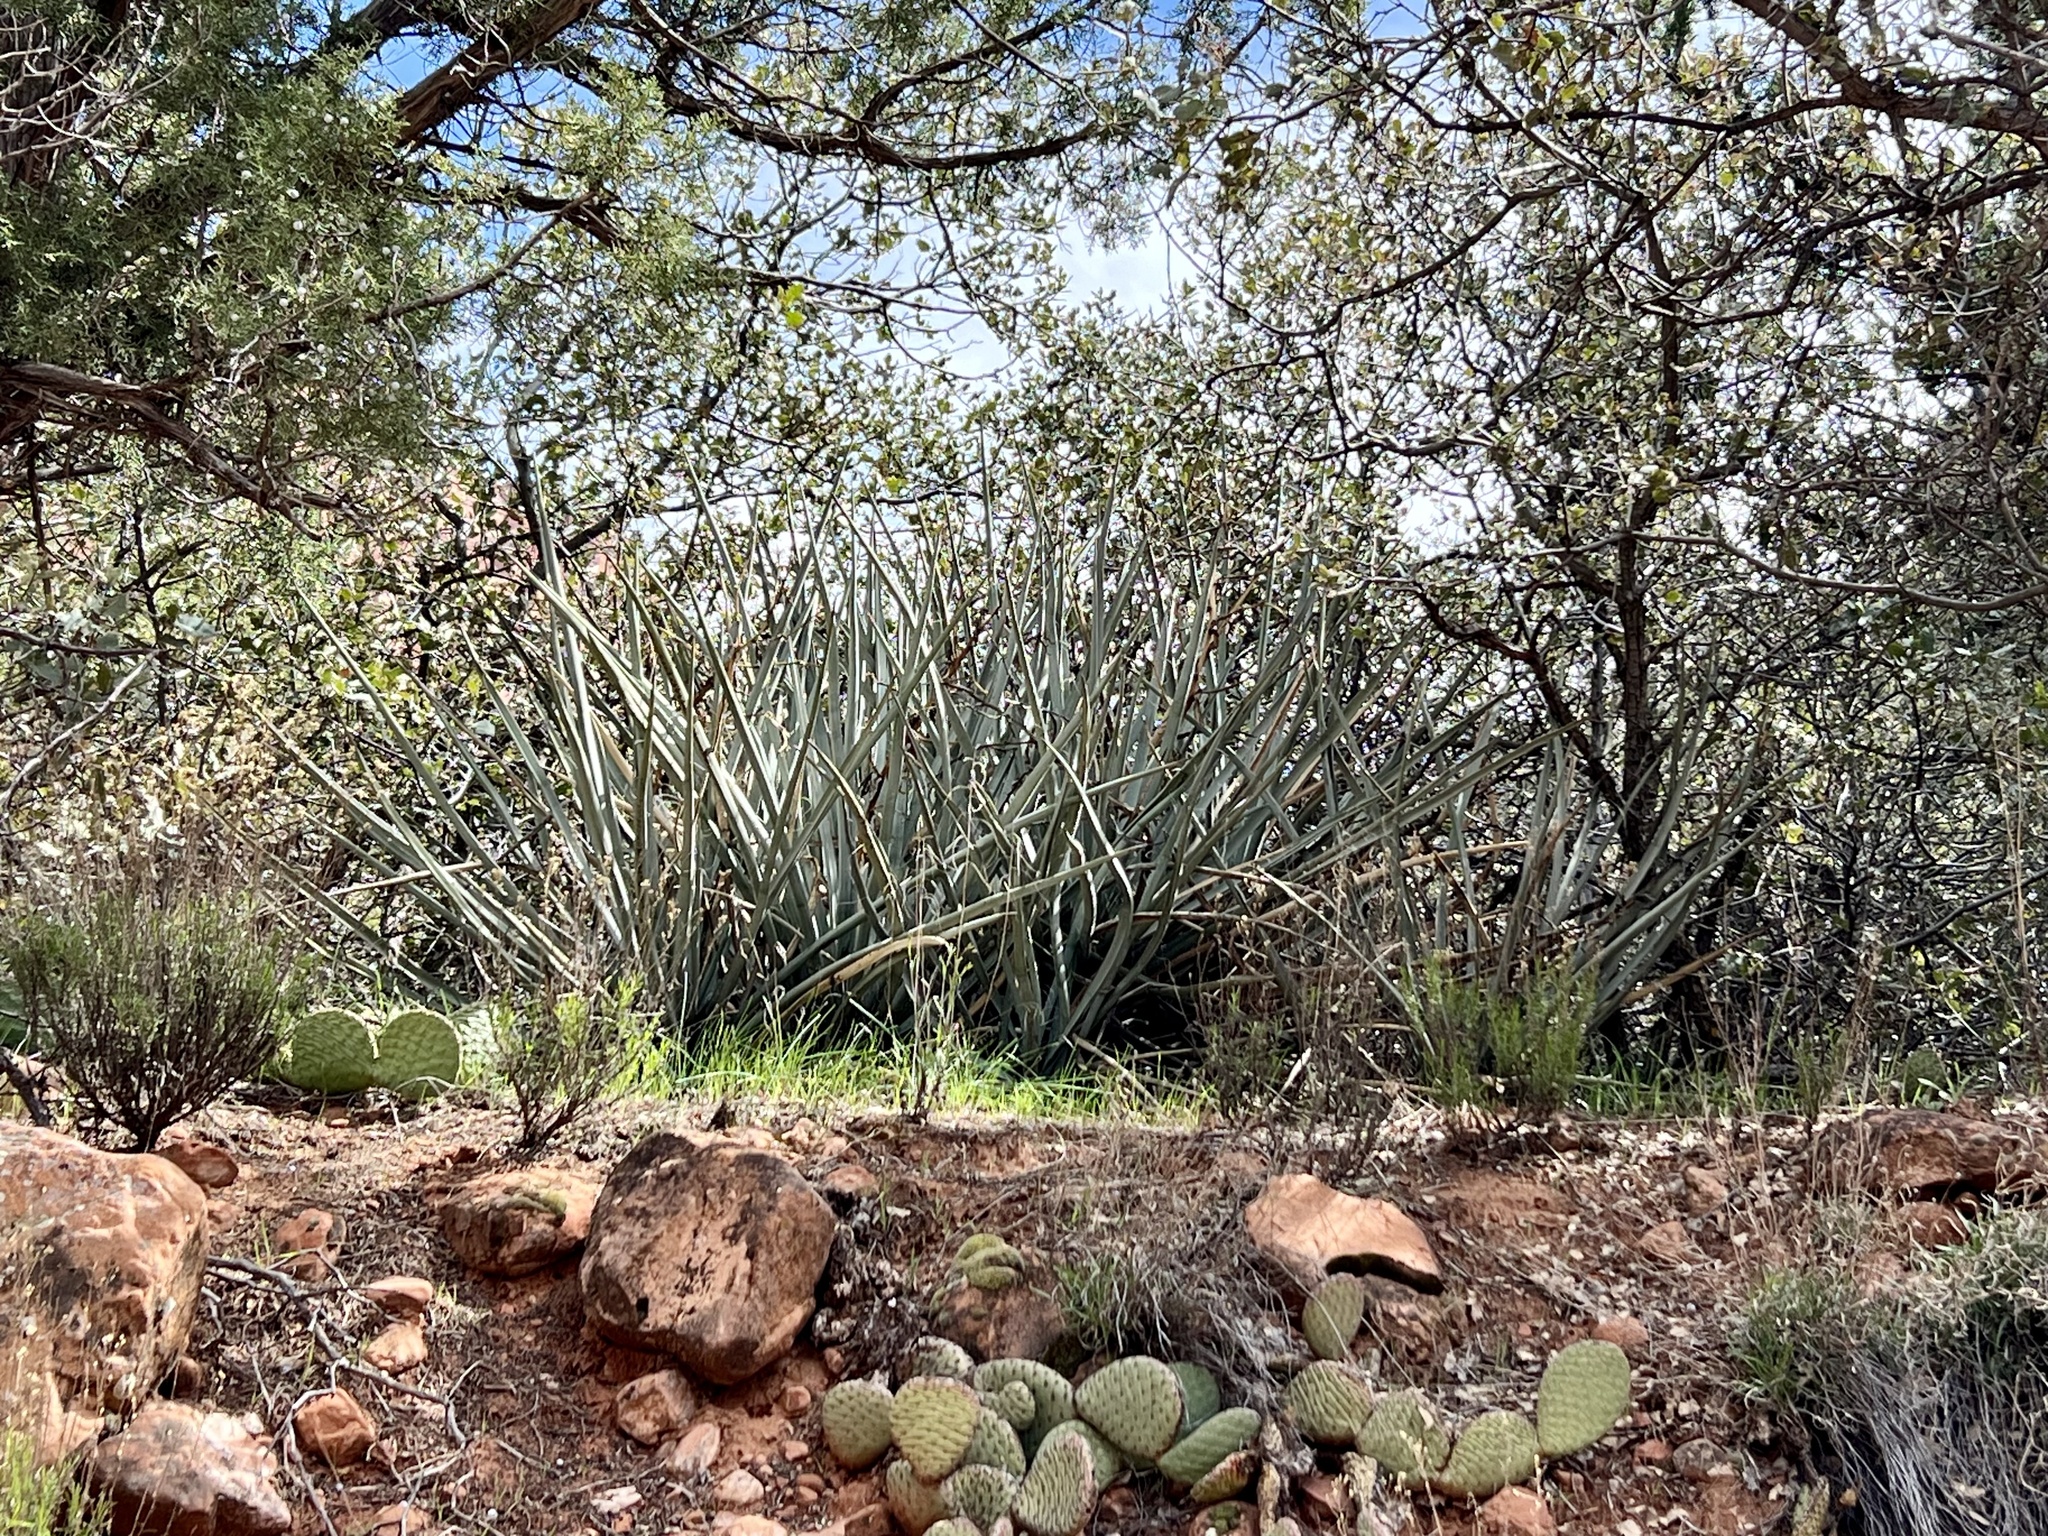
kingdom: Plantae
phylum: Tracheophyta
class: Liliopsida
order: Asparagales
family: Asparagaceae
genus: Yucca
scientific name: Yucca baccata
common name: Banana yucca
